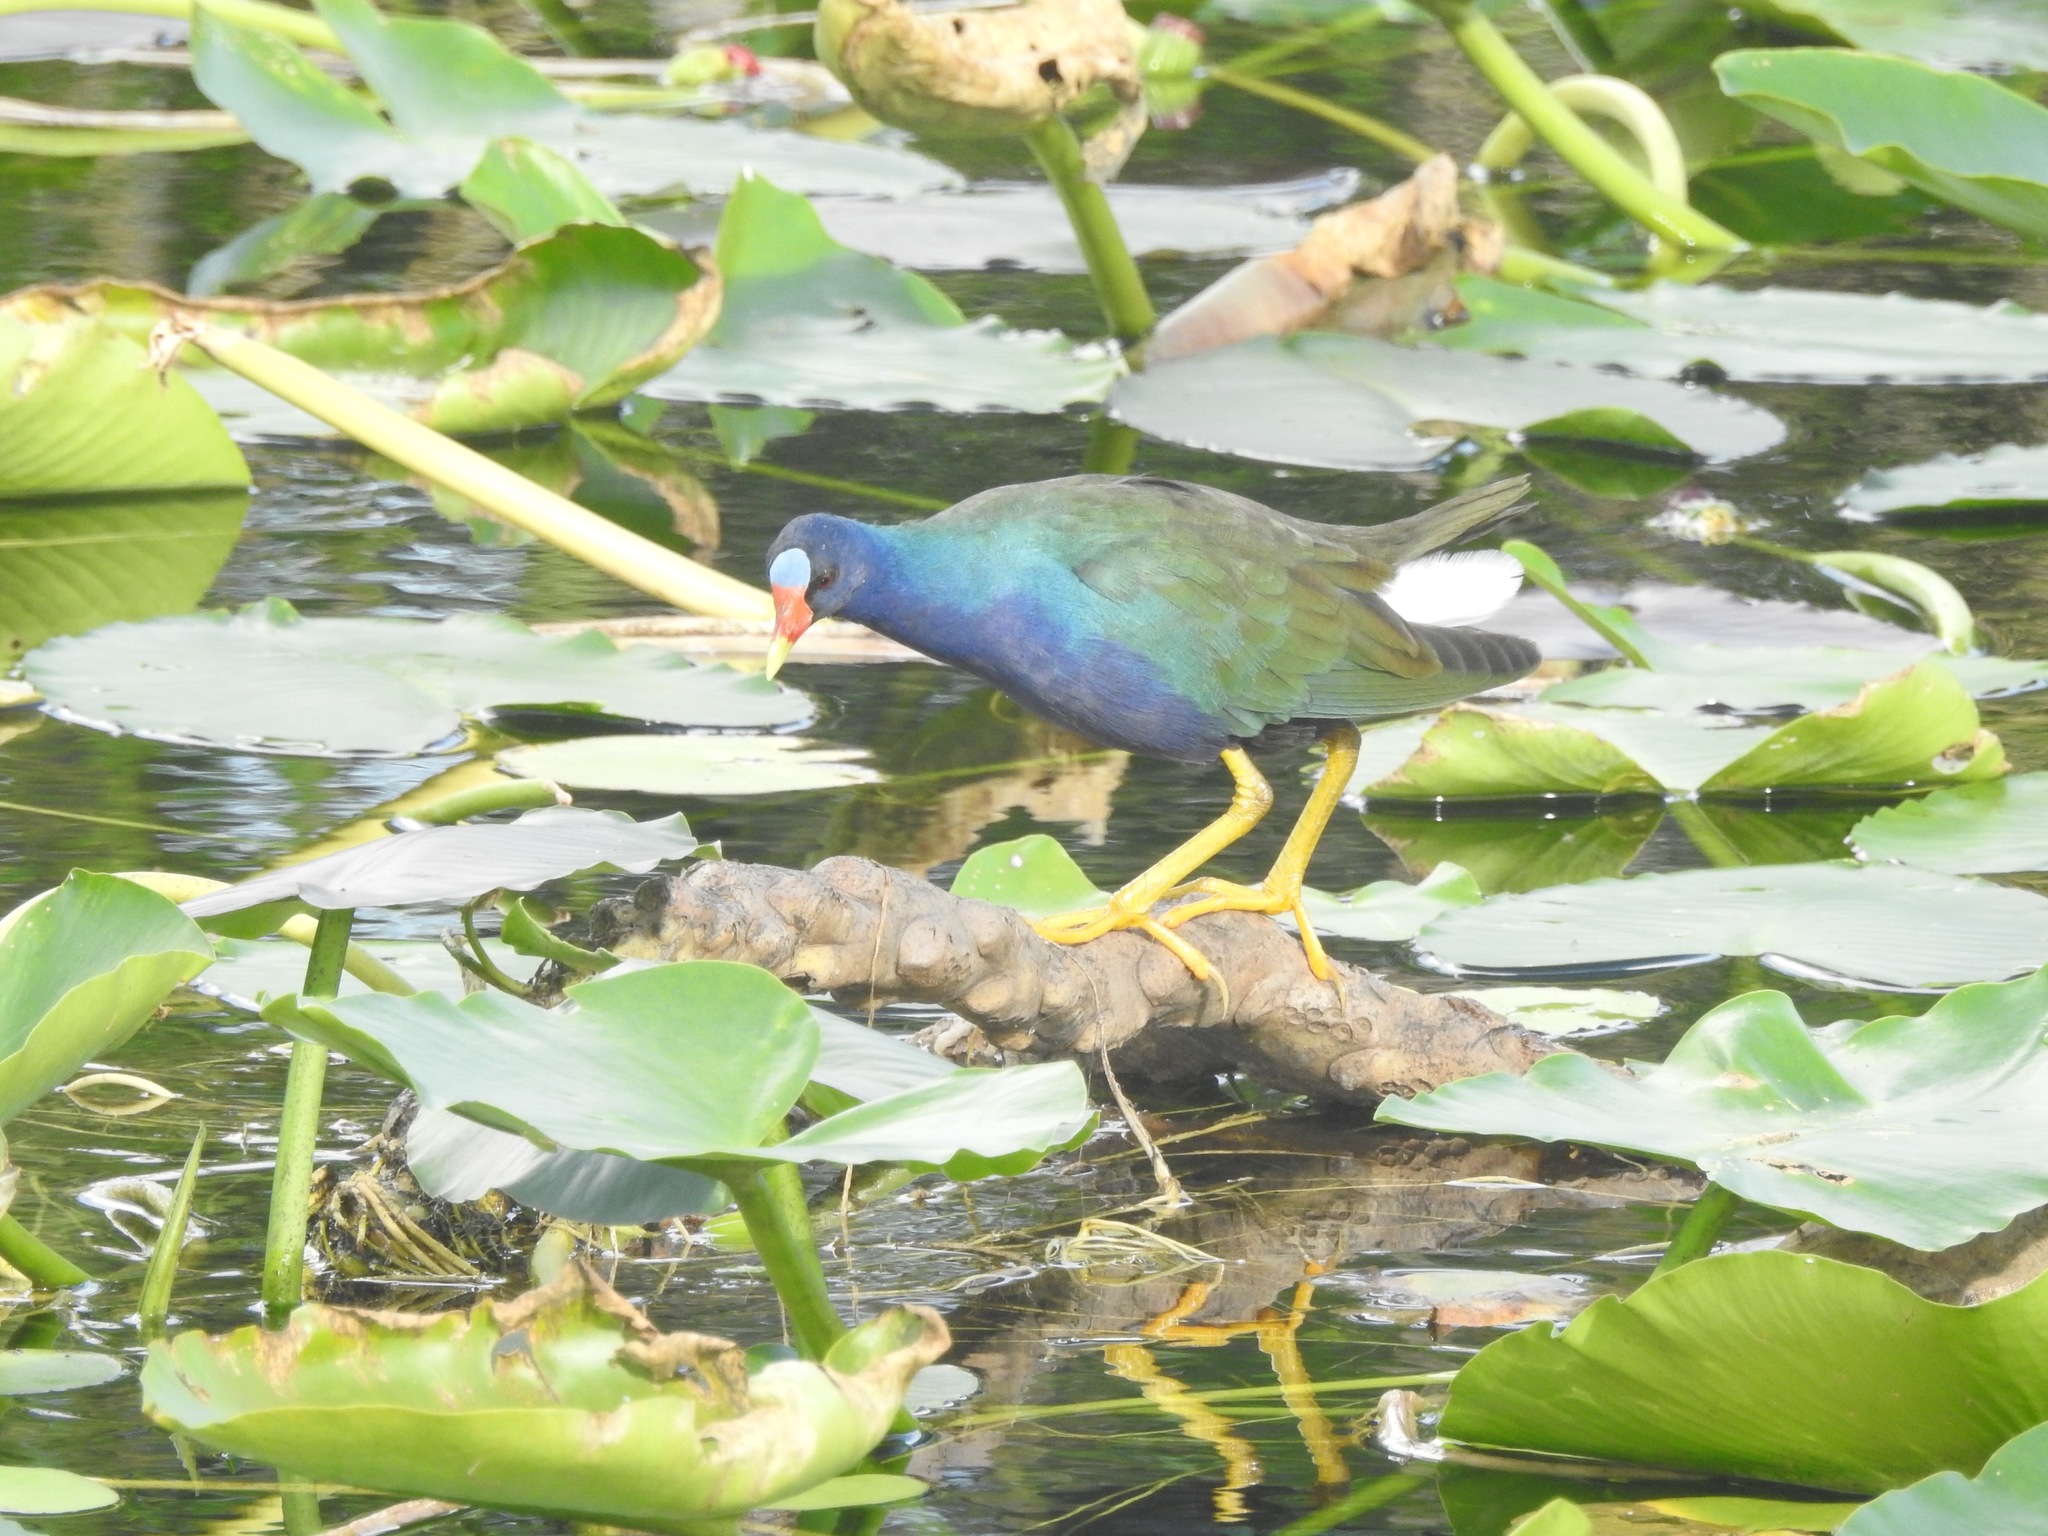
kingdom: Animalia
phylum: Chordata
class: Aves
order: Gruiformes
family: Rallidae
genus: Porphyrio
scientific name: Porphyrio martinica
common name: Purple gallinule
